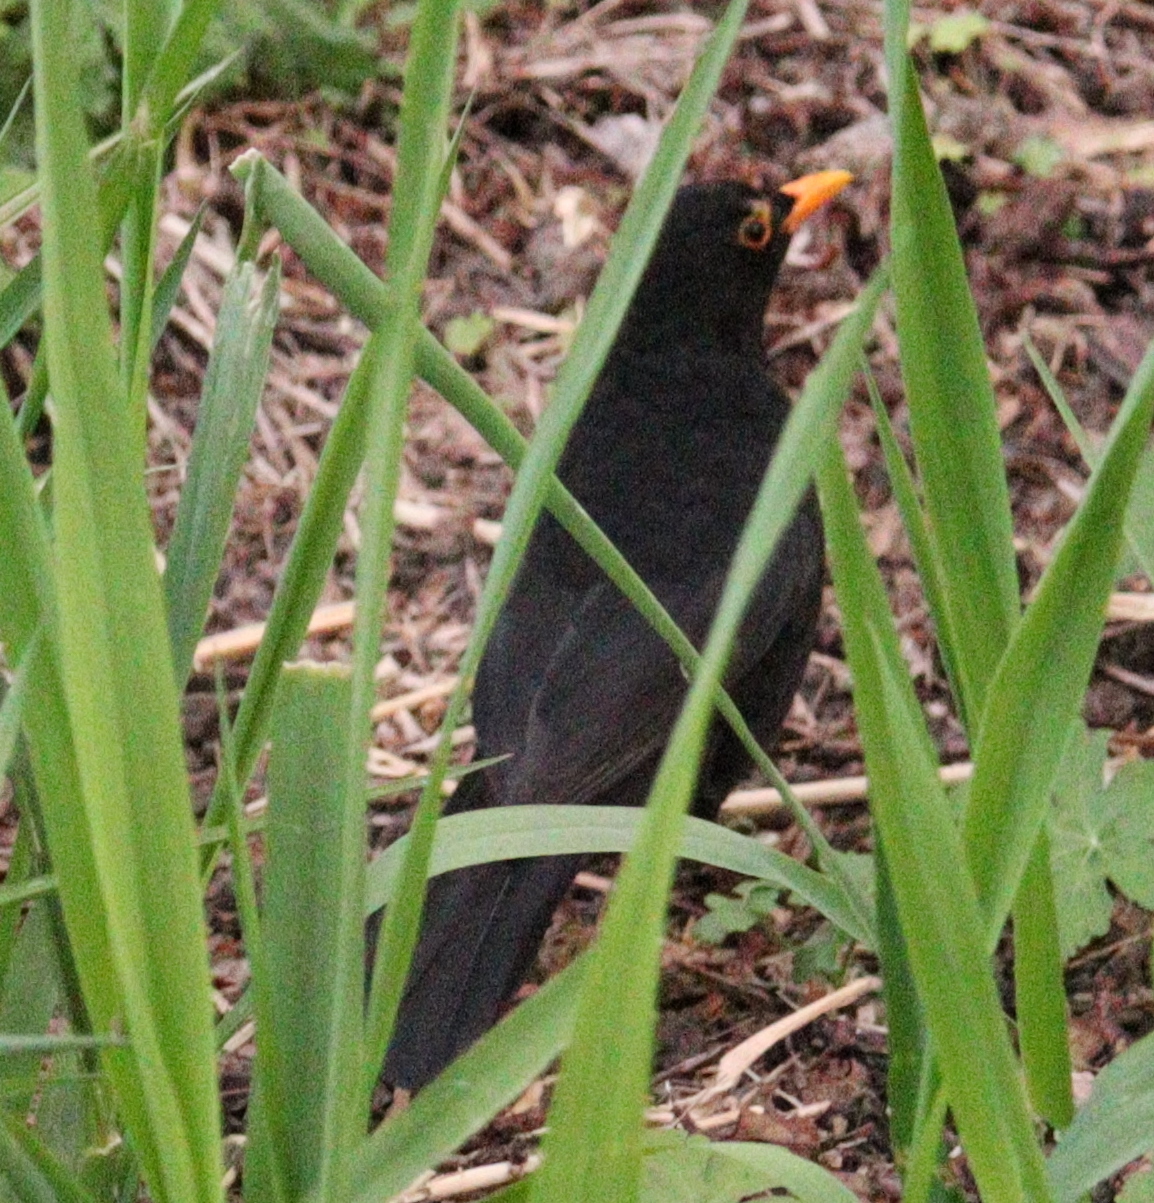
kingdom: Animalia
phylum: Chordata
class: Aves
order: Passeriformes
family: Turdidae
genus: Turdus
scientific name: Turdus merula
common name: Common blackbird
